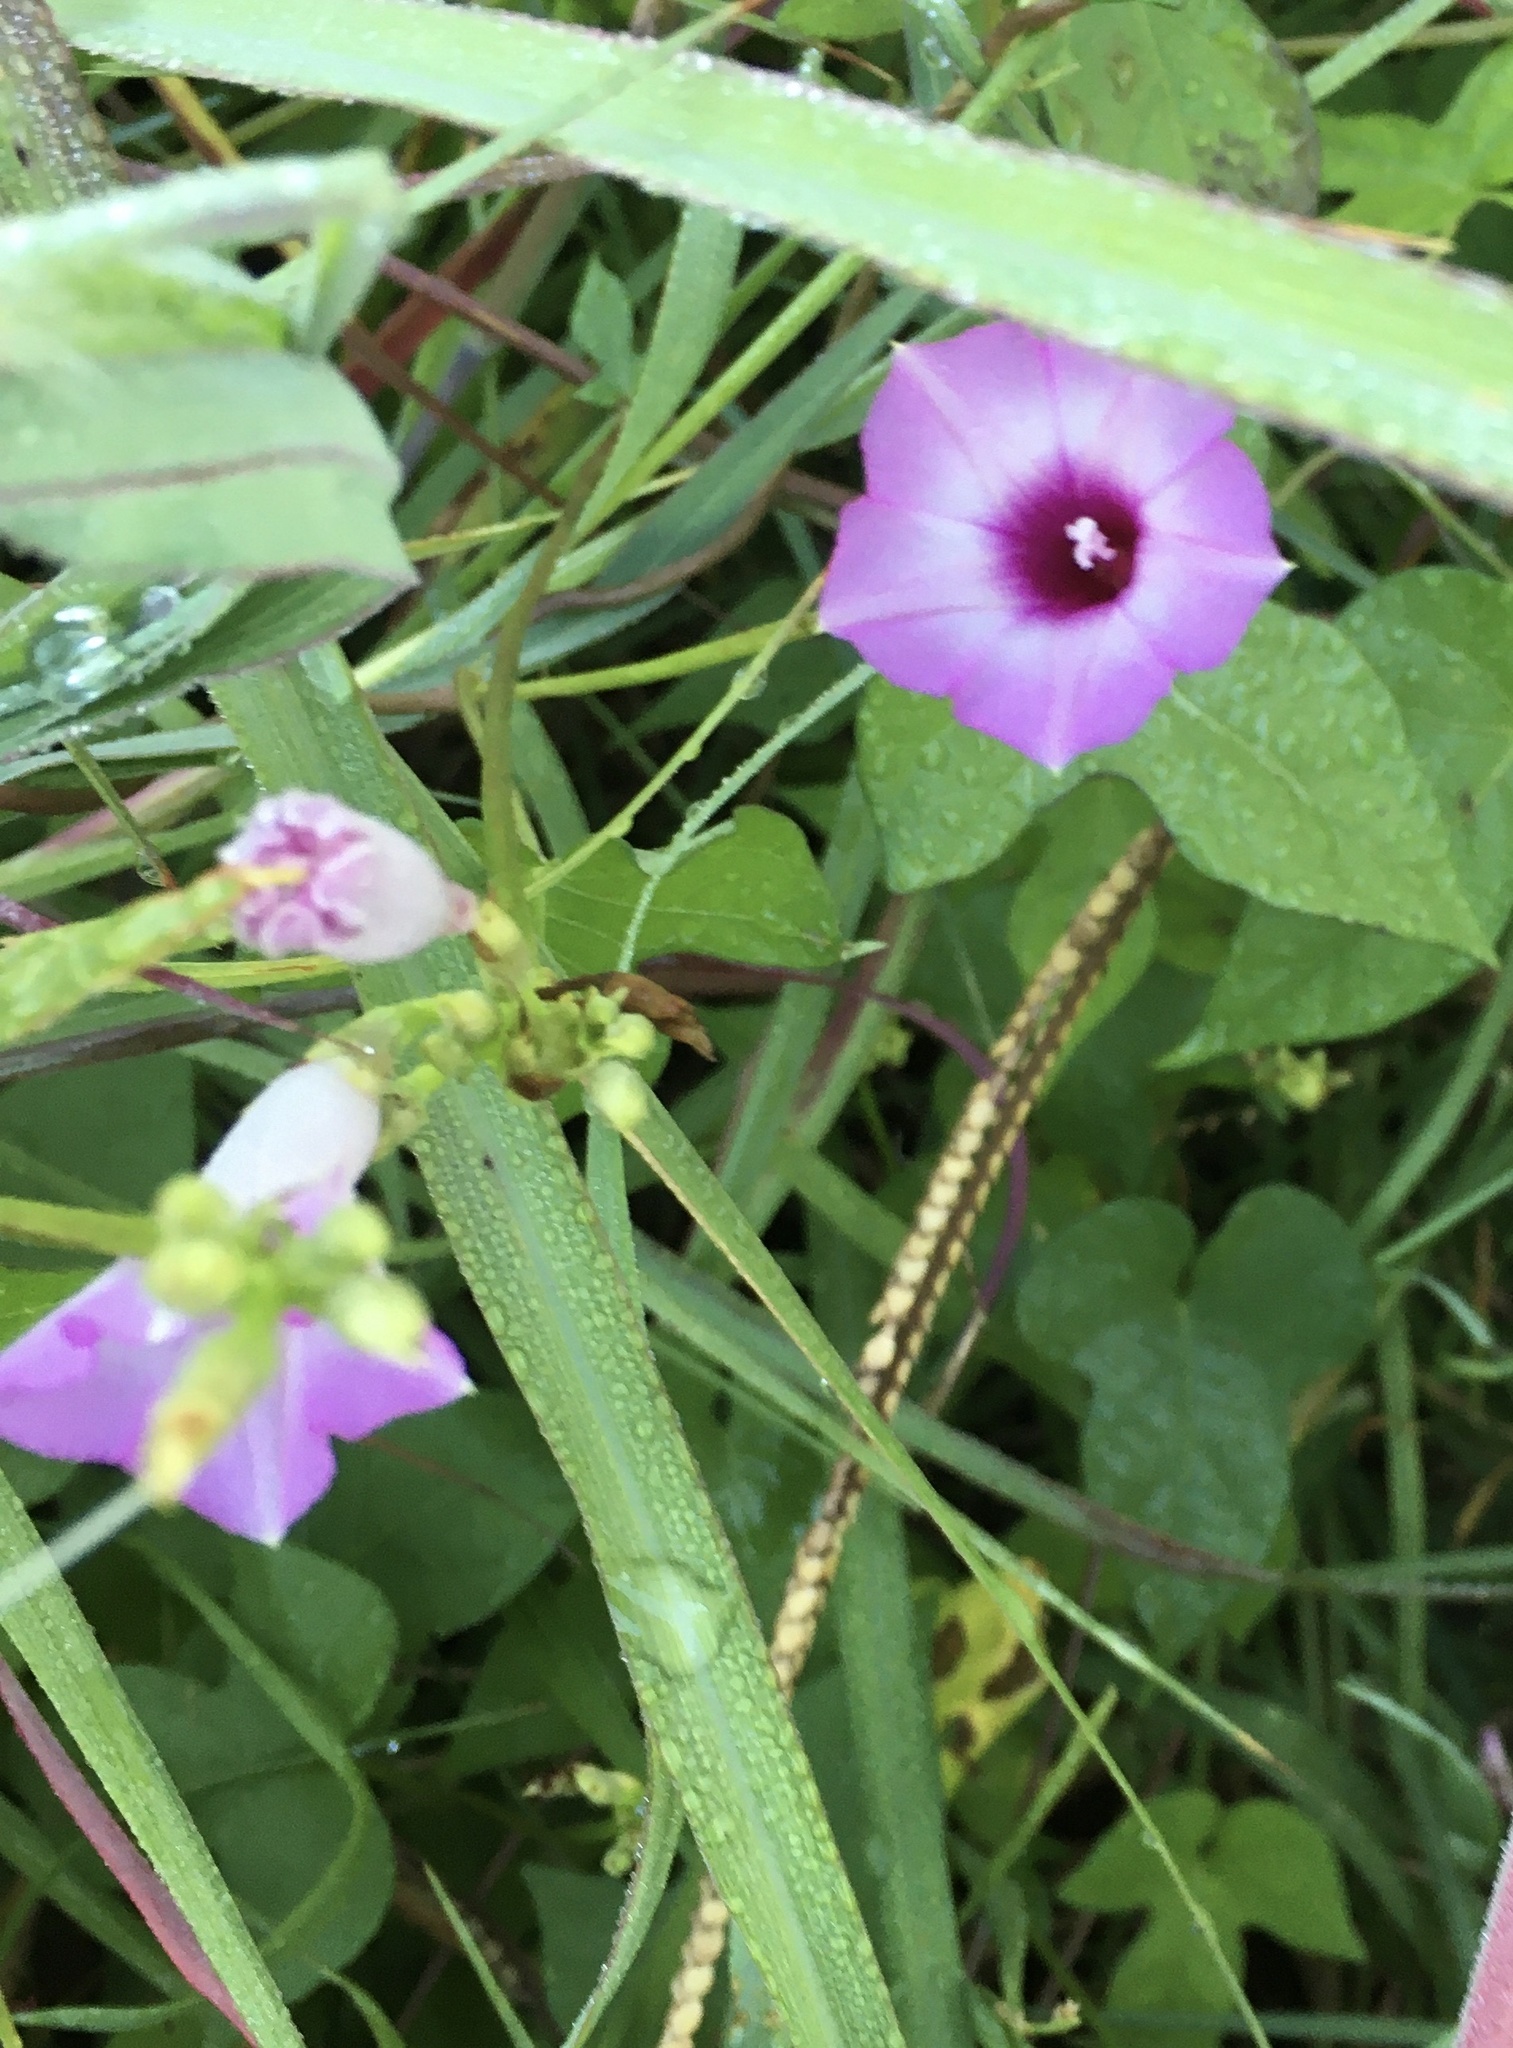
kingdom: Plantae
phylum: Tracheophyta
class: Magnoliopsida
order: Solanales
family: Convolvulaceae
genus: Ipomoea
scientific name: Ipomoea cordatotriloba
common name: Cotton morning glory
